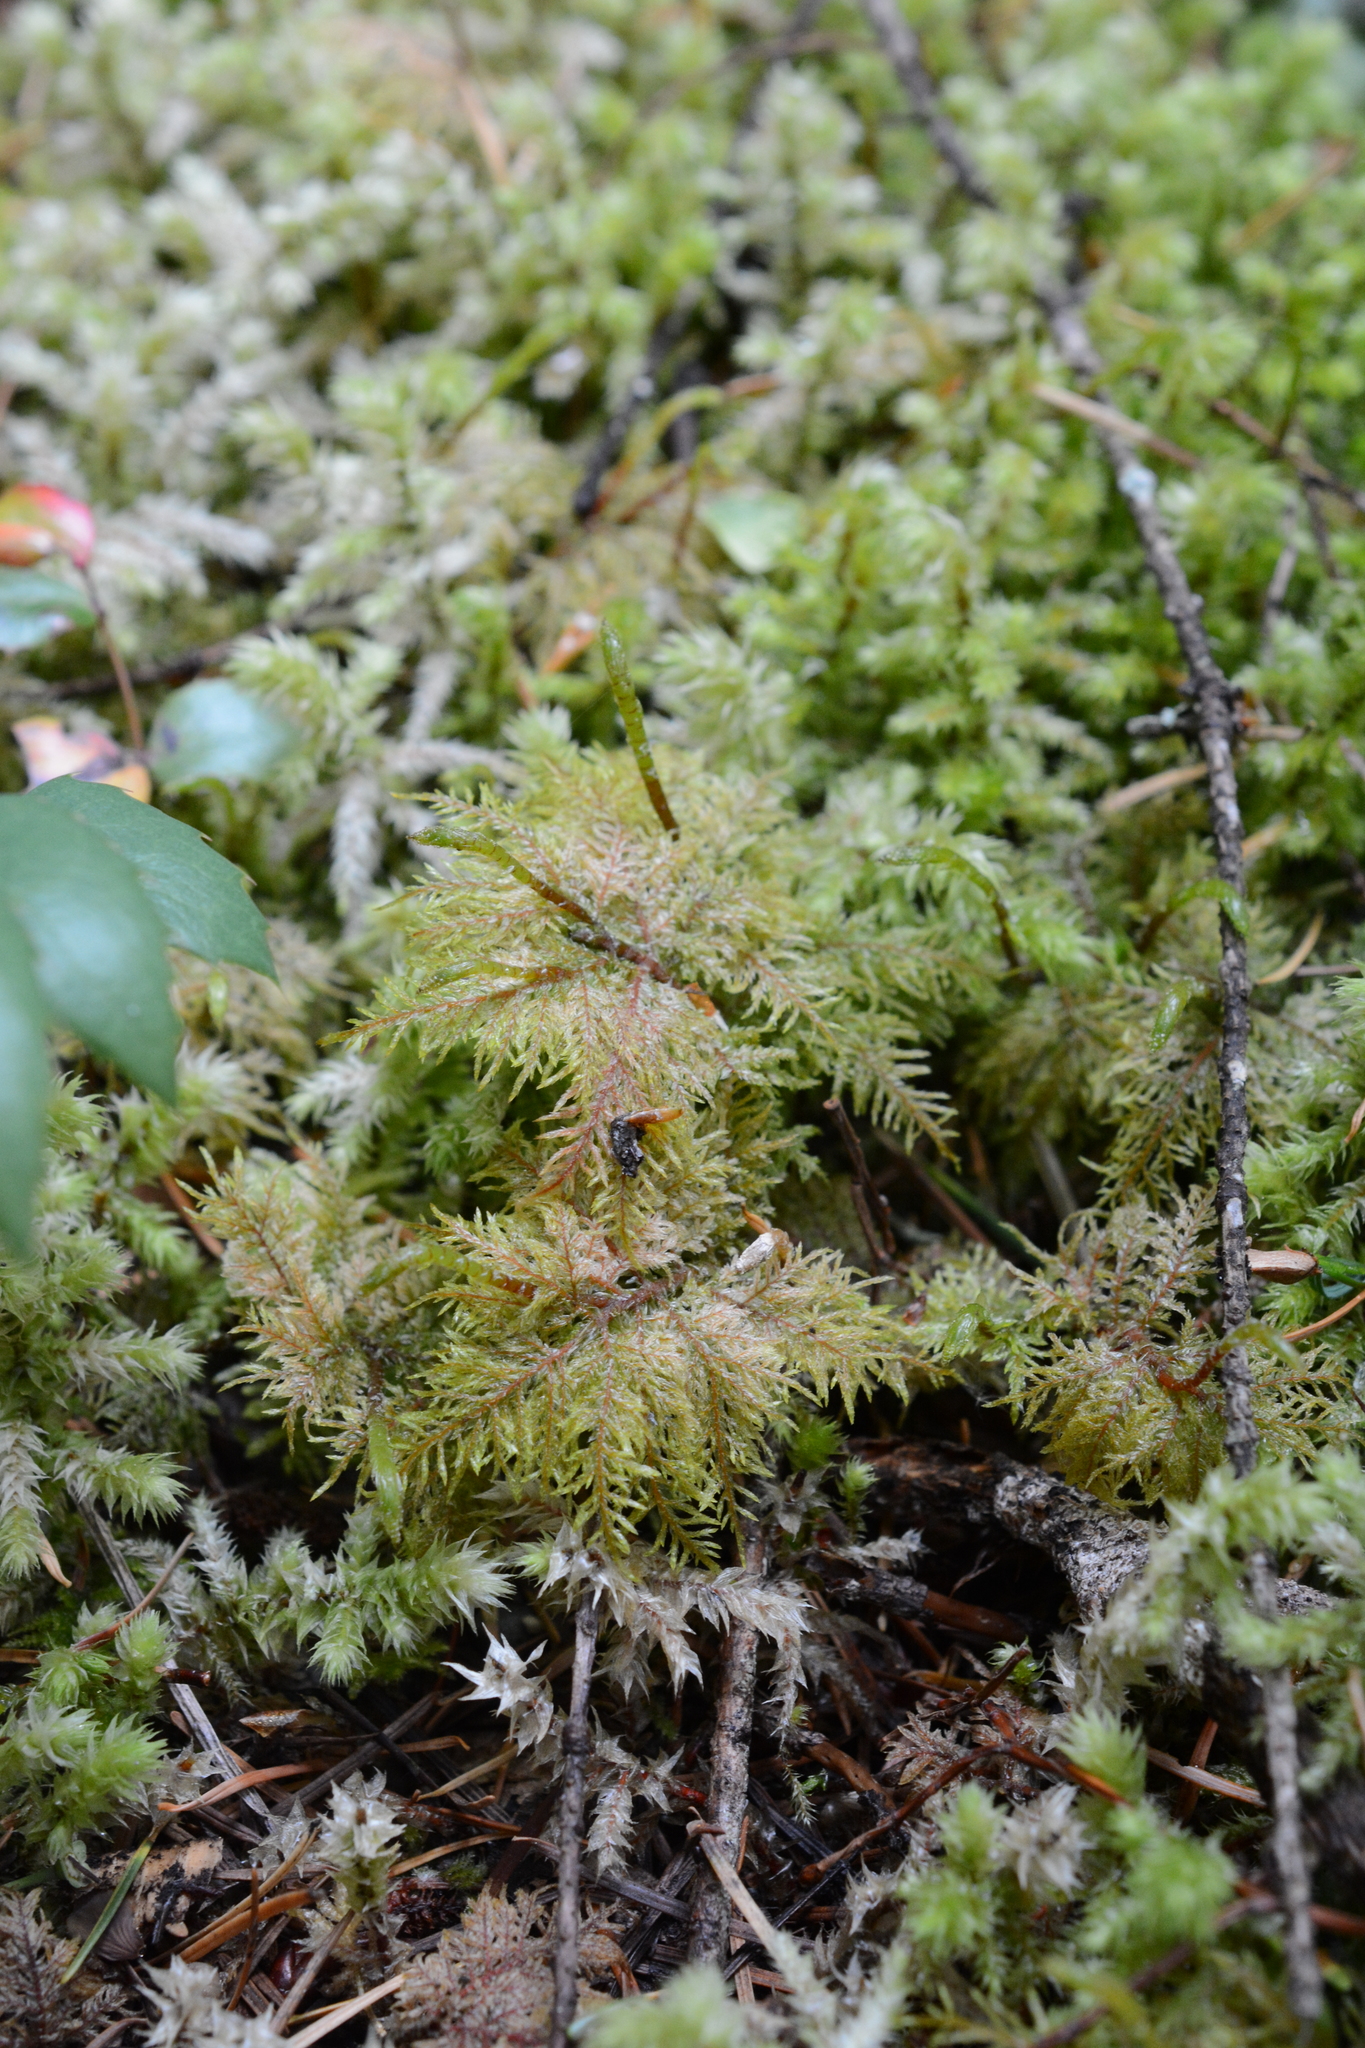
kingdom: Plantae
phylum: Bryophyta
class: Bryopsida
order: Hypnales
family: Hylocomiaceae
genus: Hylocomium
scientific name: Hylocomium splendens
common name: Stairstep moss
